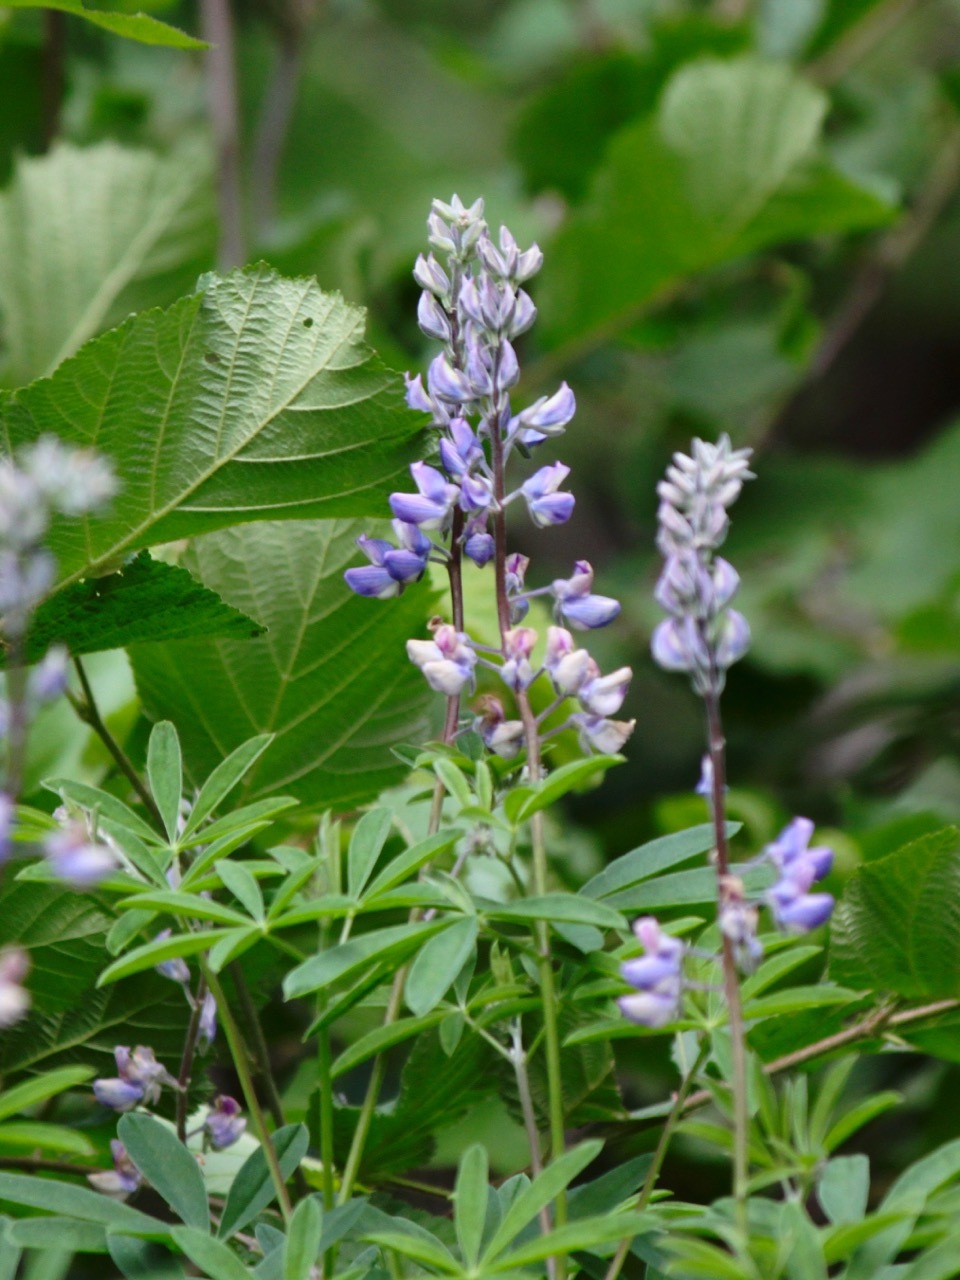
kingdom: Plantae
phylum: Tracheophyta
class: Magnoliopsida
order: Fabales
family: Fabaceae
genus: Lupinus
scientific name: Lupinus latifolius
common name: Broad-leaved lupine
